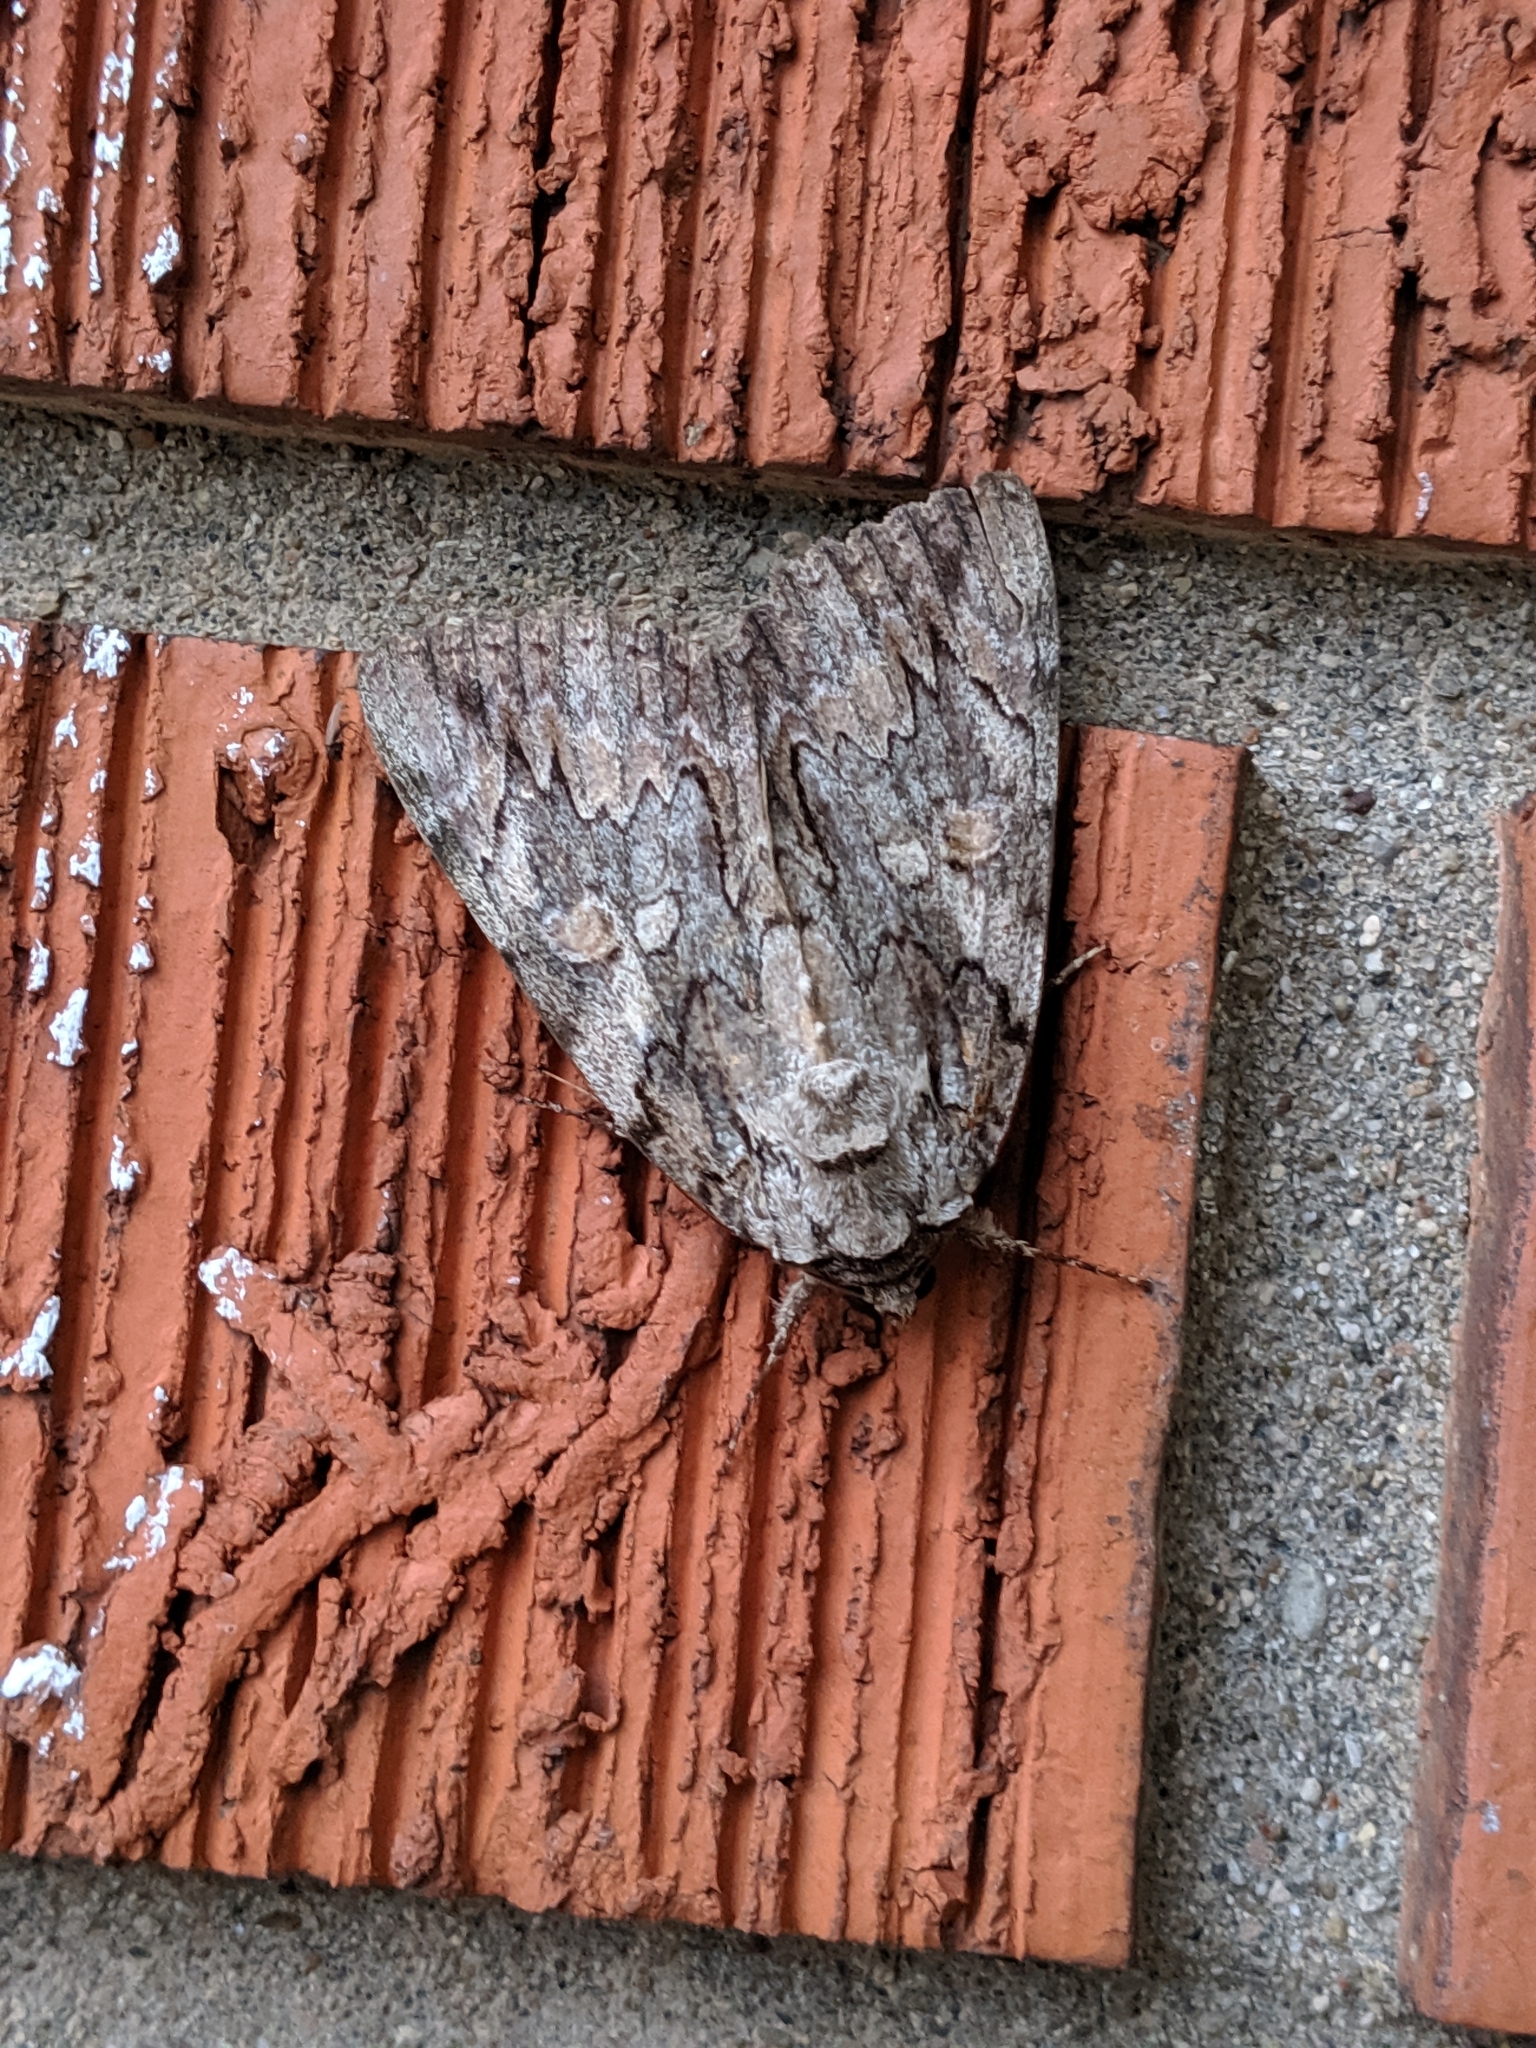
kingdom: Animalia
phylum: Arthropoda
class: Insecta
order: Lepidoptera
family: Erebidae
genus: Catocala
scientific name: Catocala neogama
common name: Bride underwing
